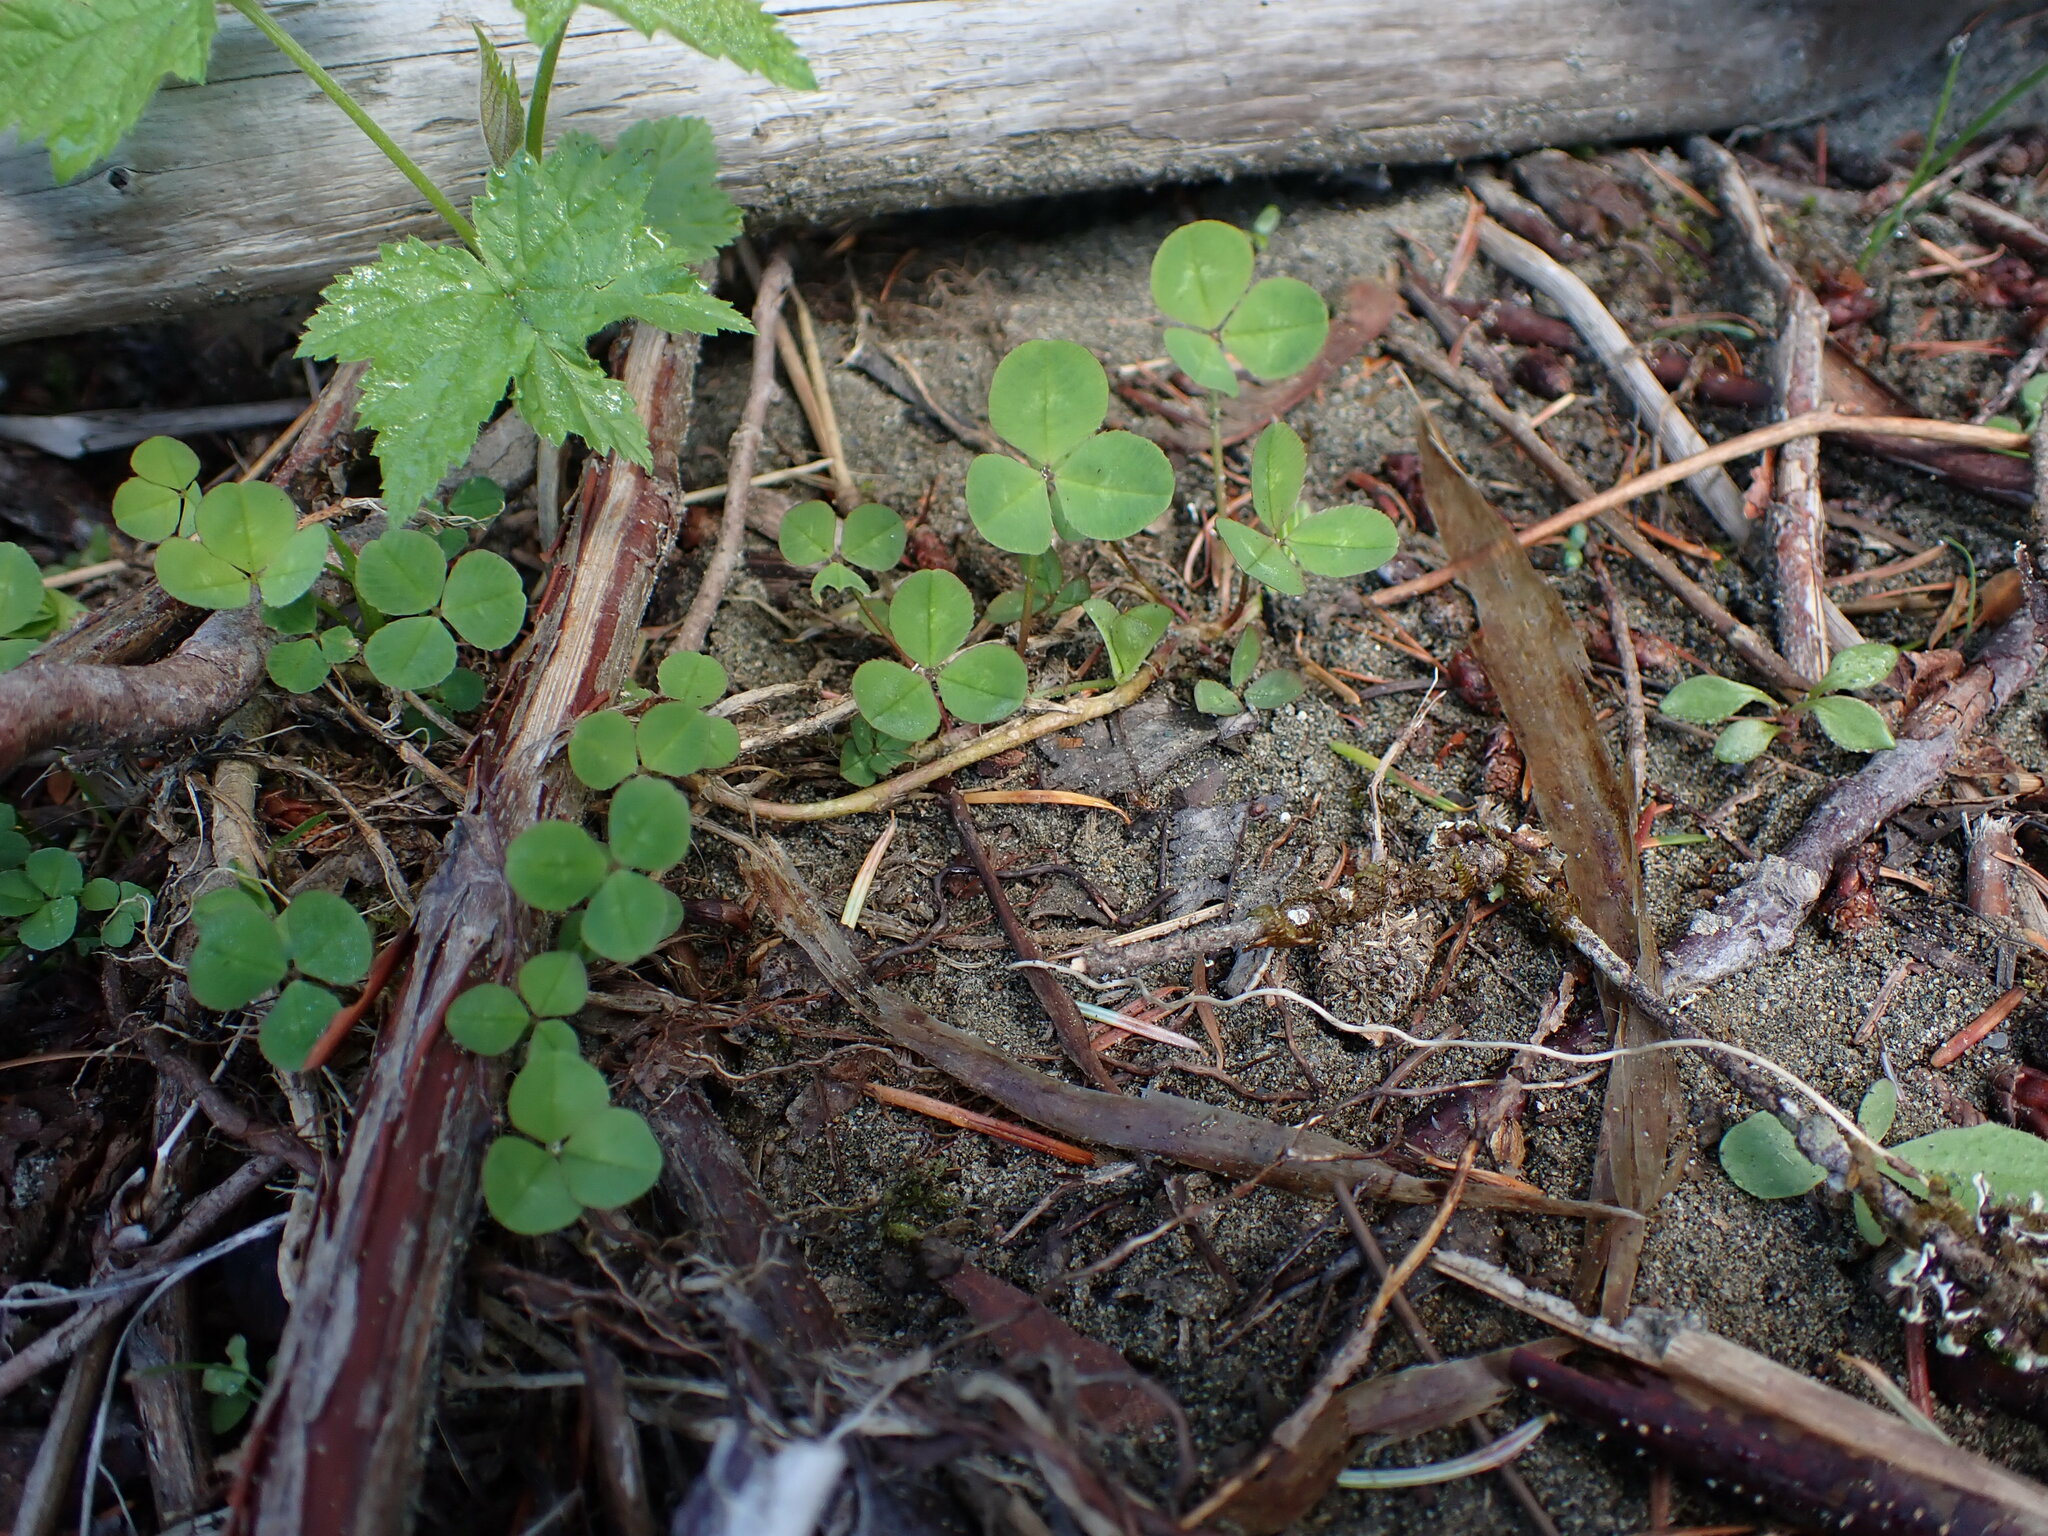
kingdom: Plantae
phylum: Tracheophyta
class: Magnoliopsida
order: Fabales
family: Fabaceae
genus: Trifolium
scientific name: Trifolium repens
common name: White clover
